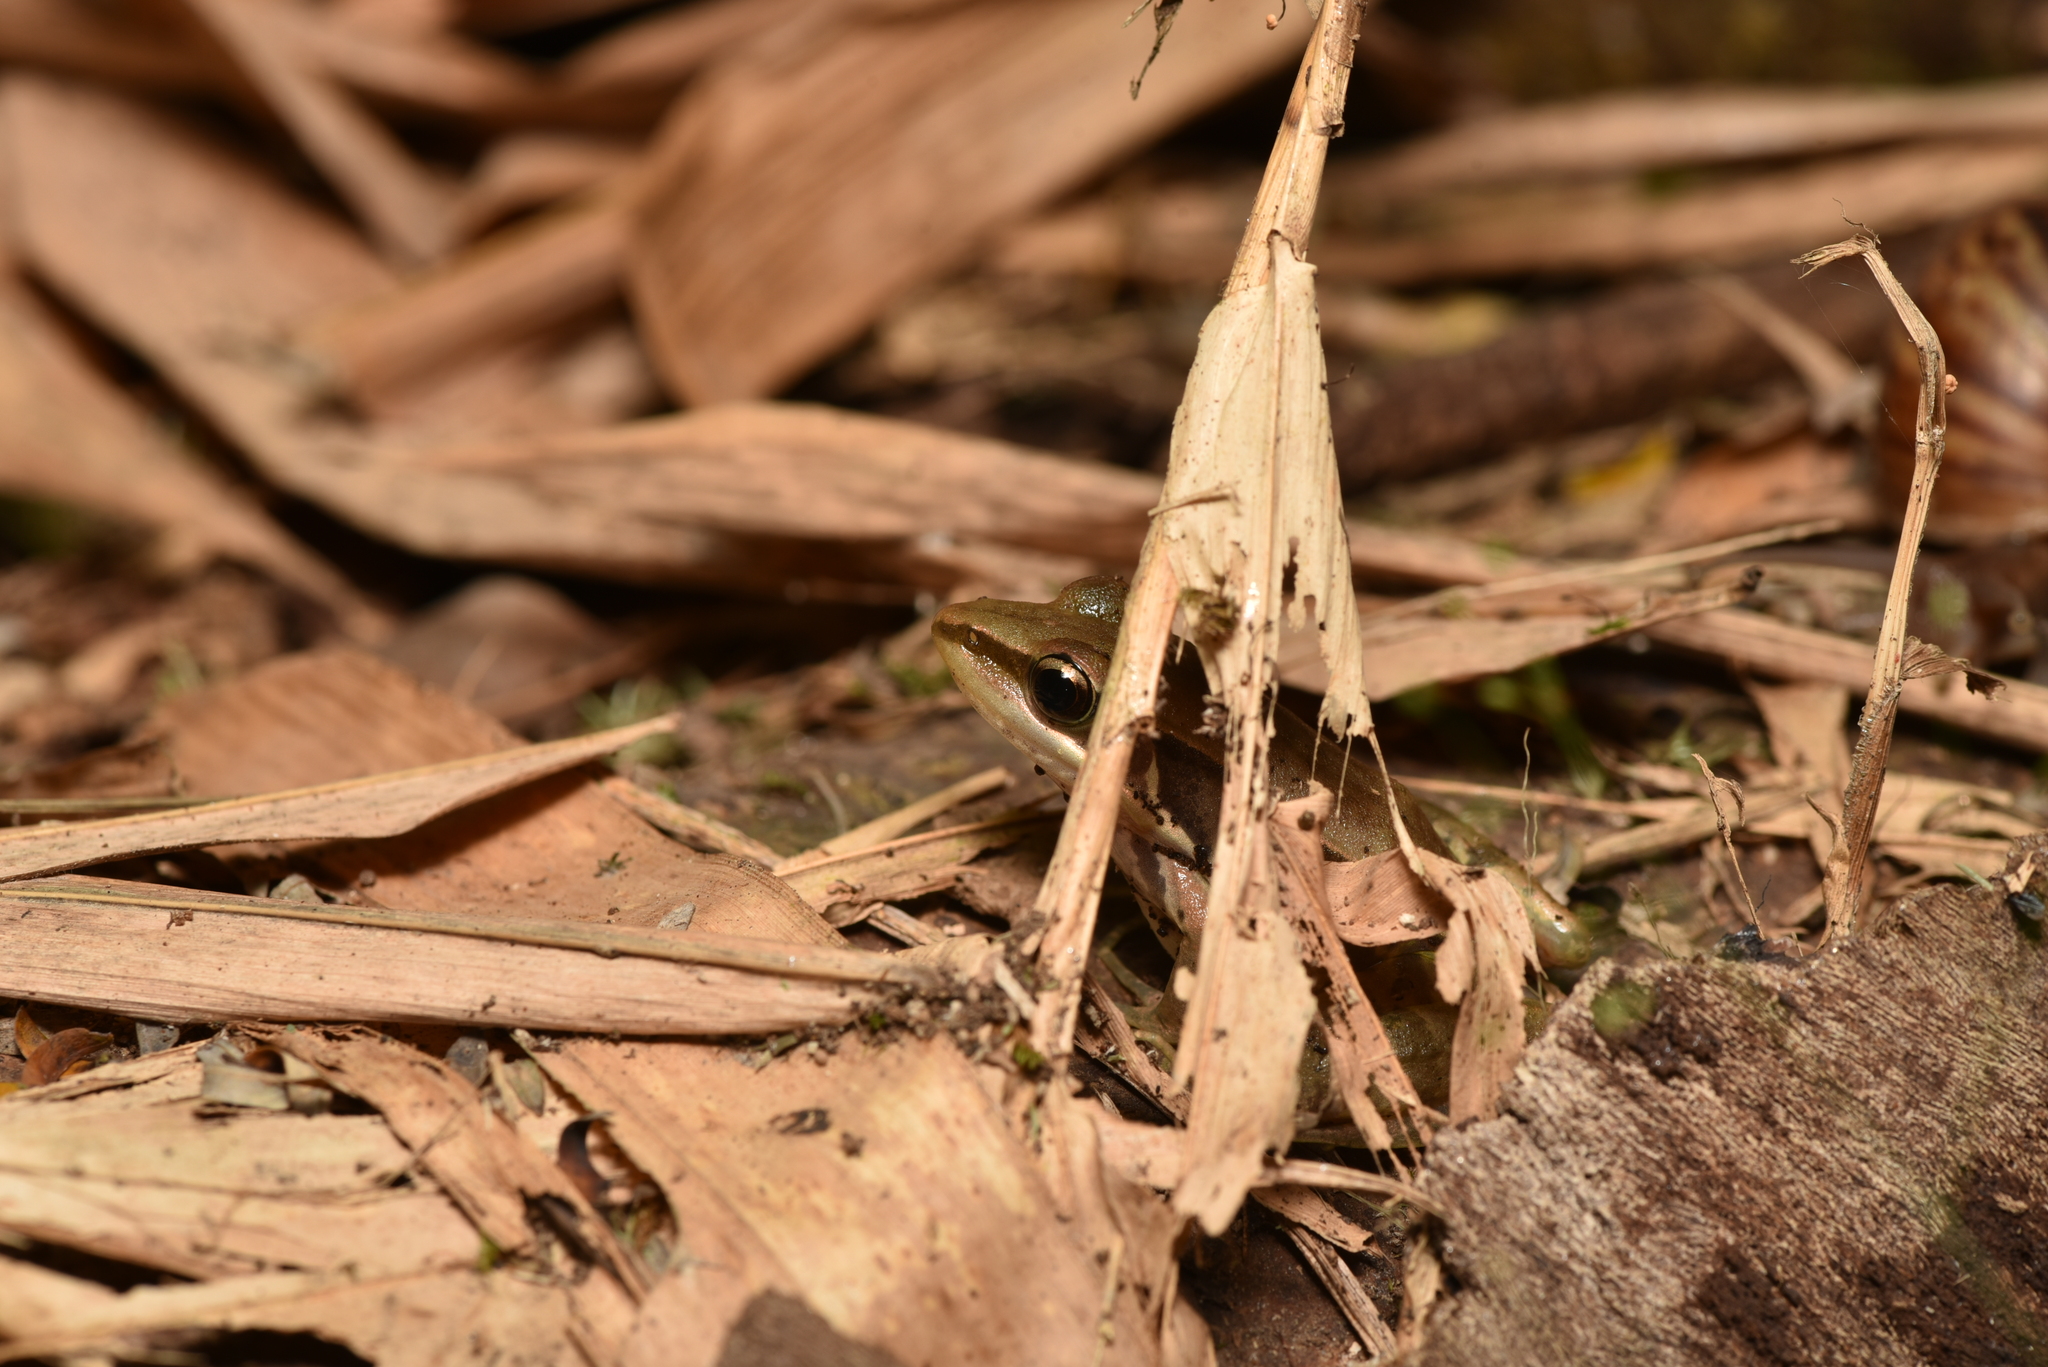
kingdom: Animalia
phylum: Chordata
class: Amphibia
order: Anura
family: Ranidae
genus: Sylvirana
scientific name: Sylvirana guentheri
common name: Guenther's amoy frog
